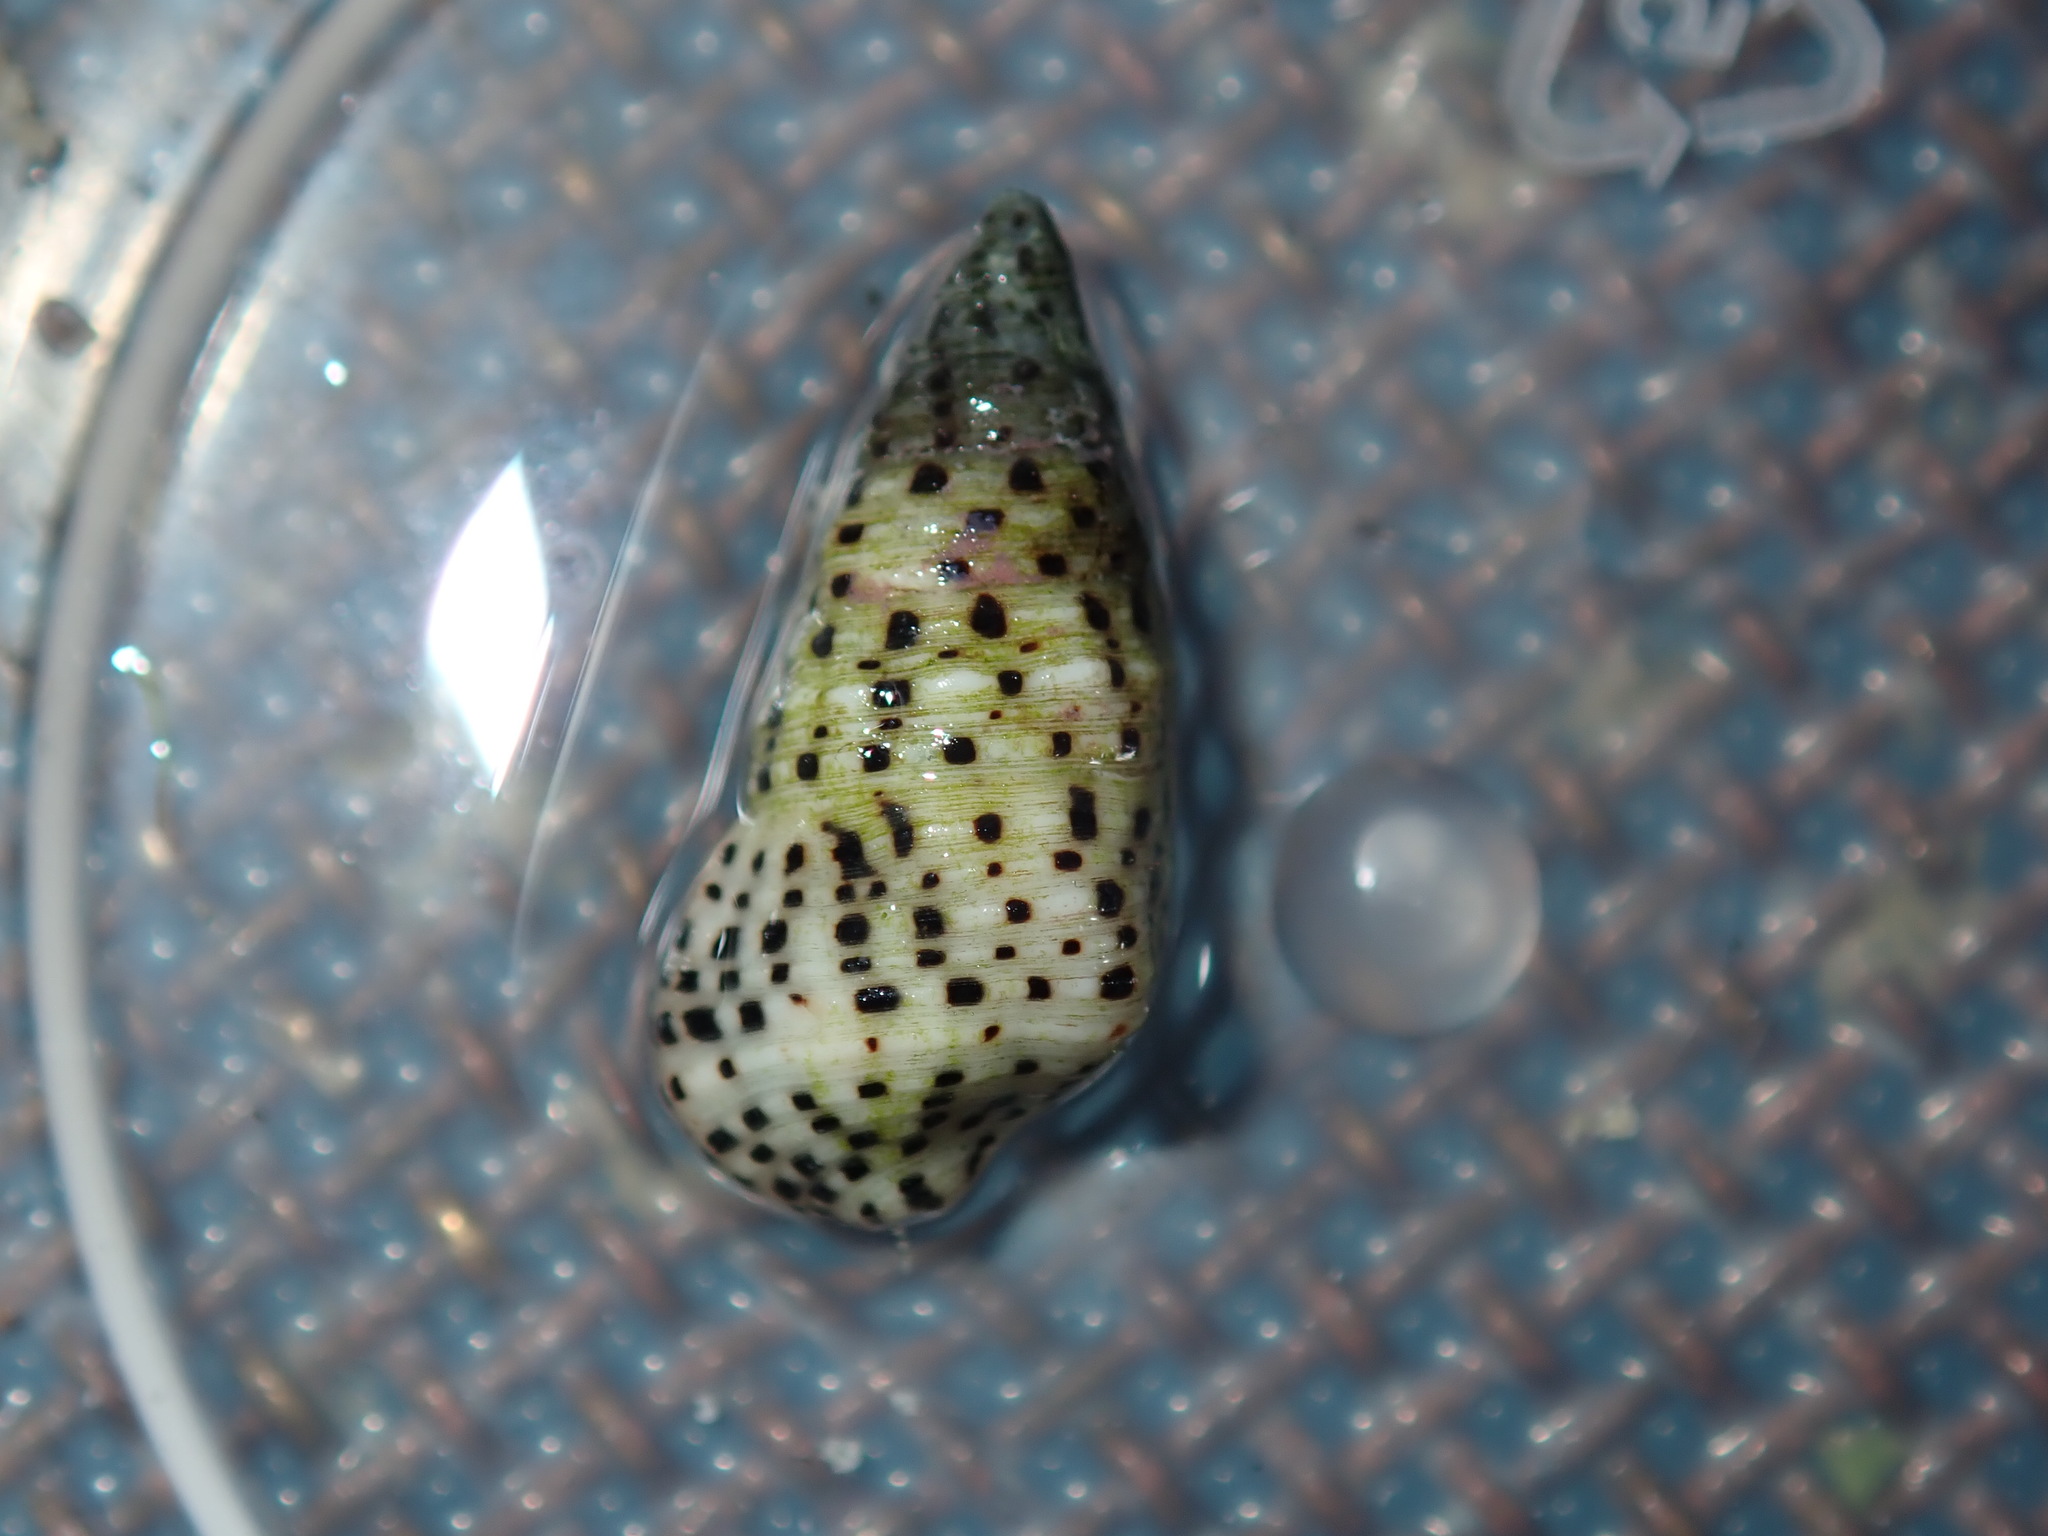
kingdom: Animalia
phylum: Mollusca
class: Gastropoda
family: Cerithiidae
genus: Clypeomorus
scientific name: Clypeomorus petrosa
